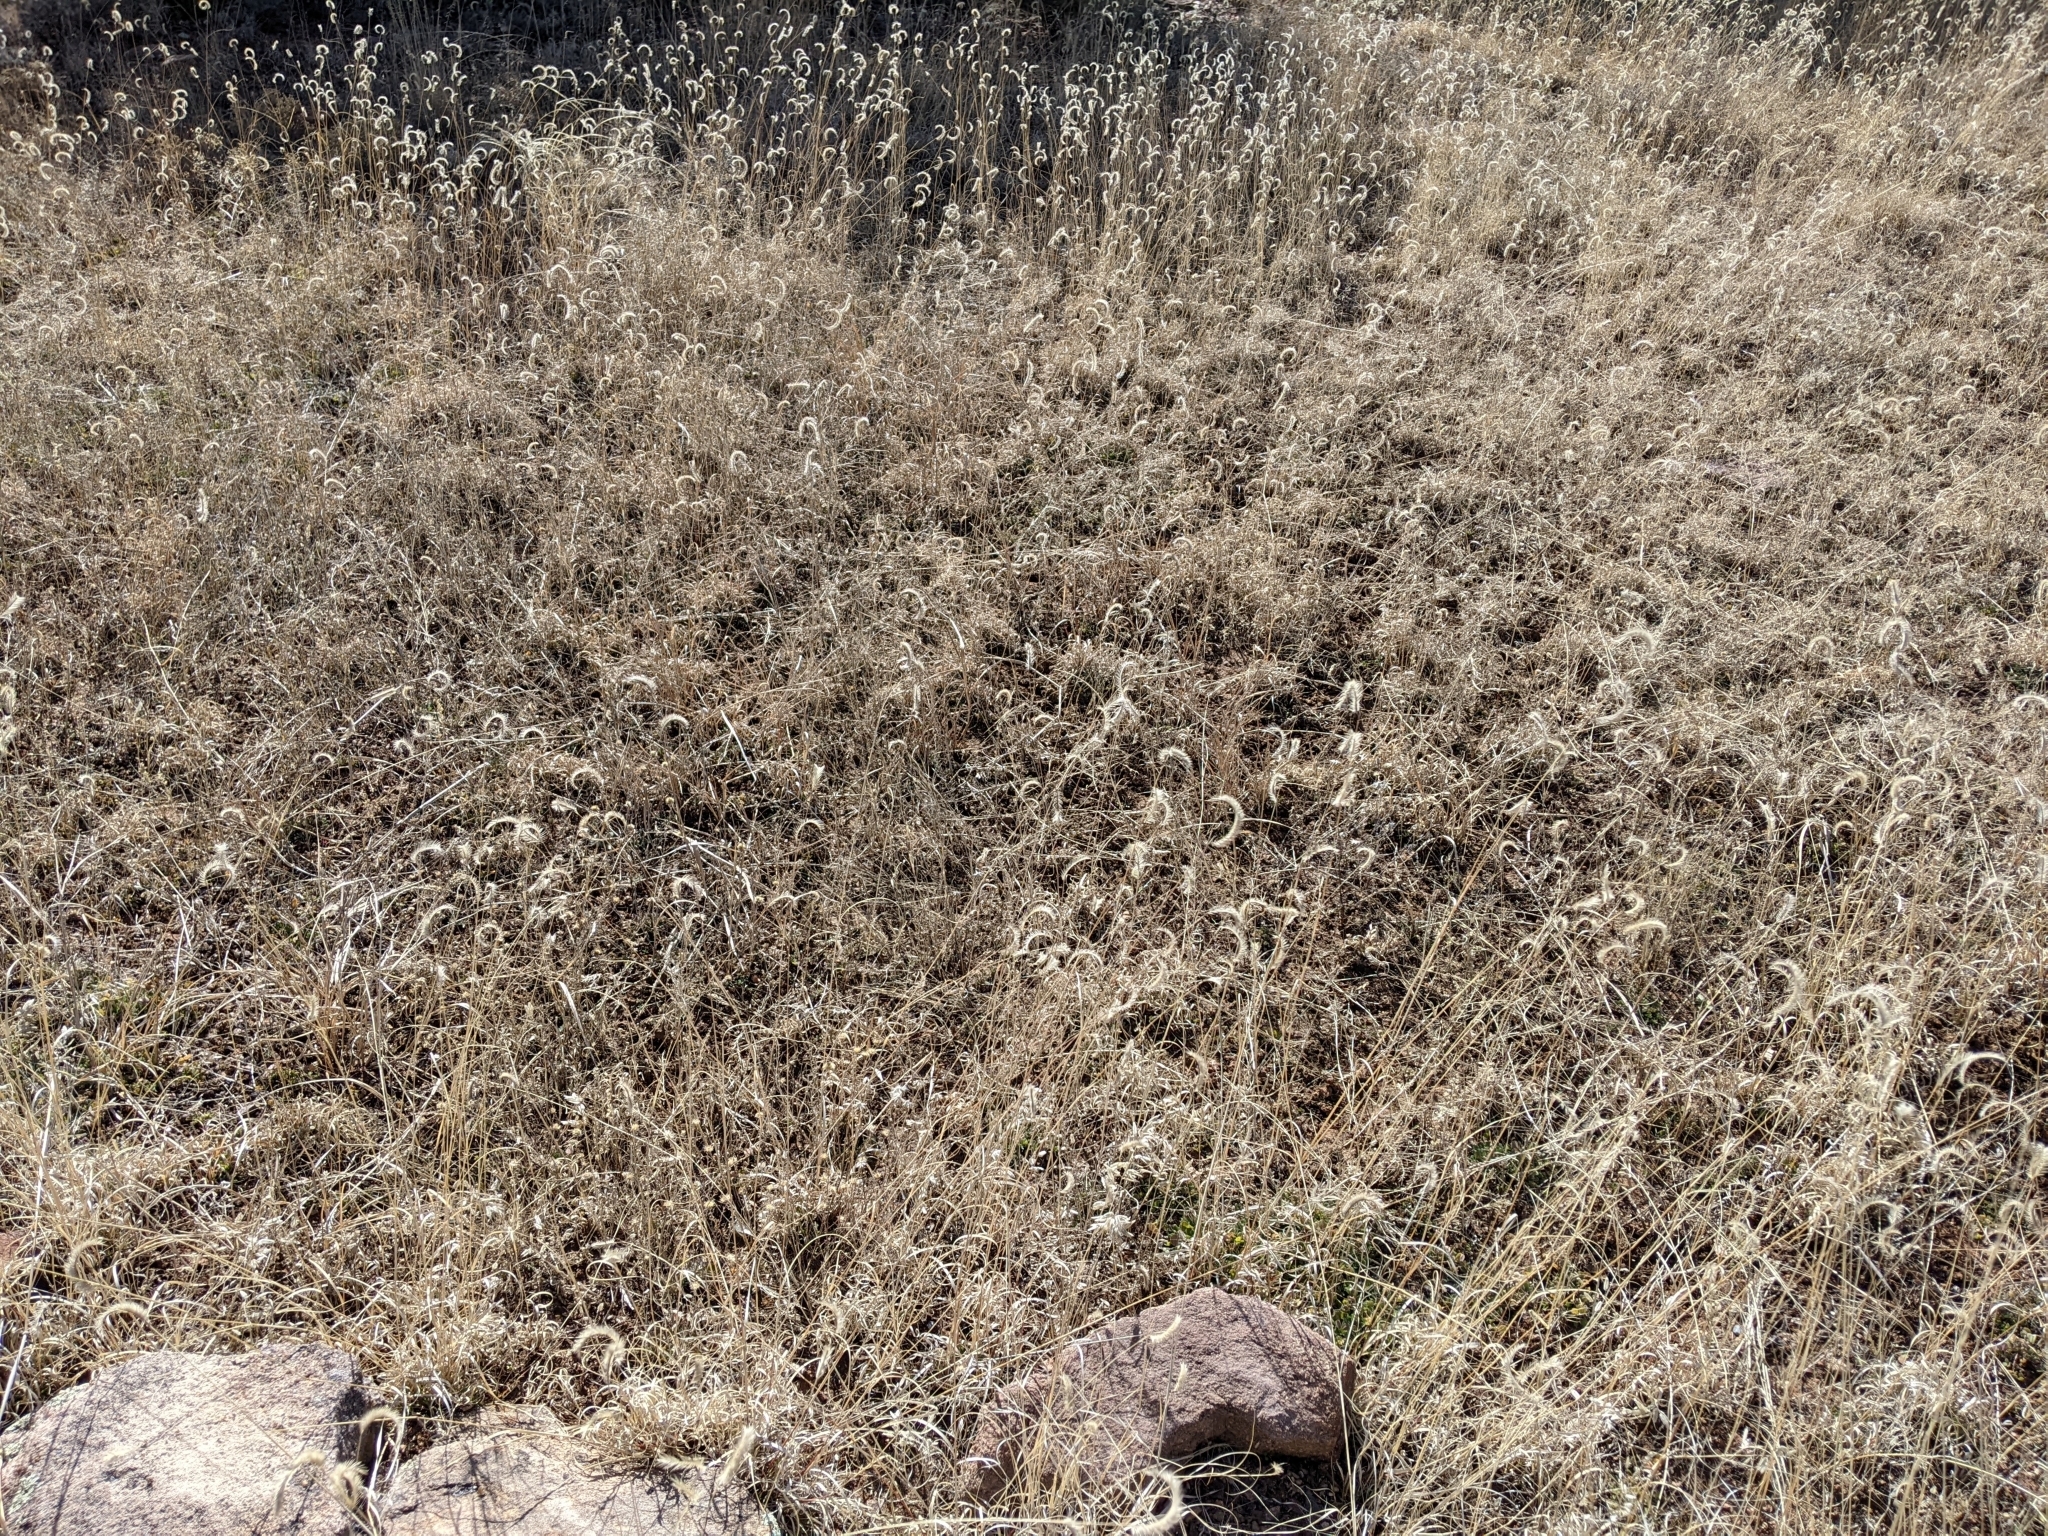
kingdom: Plantae
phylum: Tracheophyta
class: Liliopsida
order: Poales
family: Poaceae
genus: Bouteloua
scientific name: Bouteloua gracilis
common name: Blue grama
